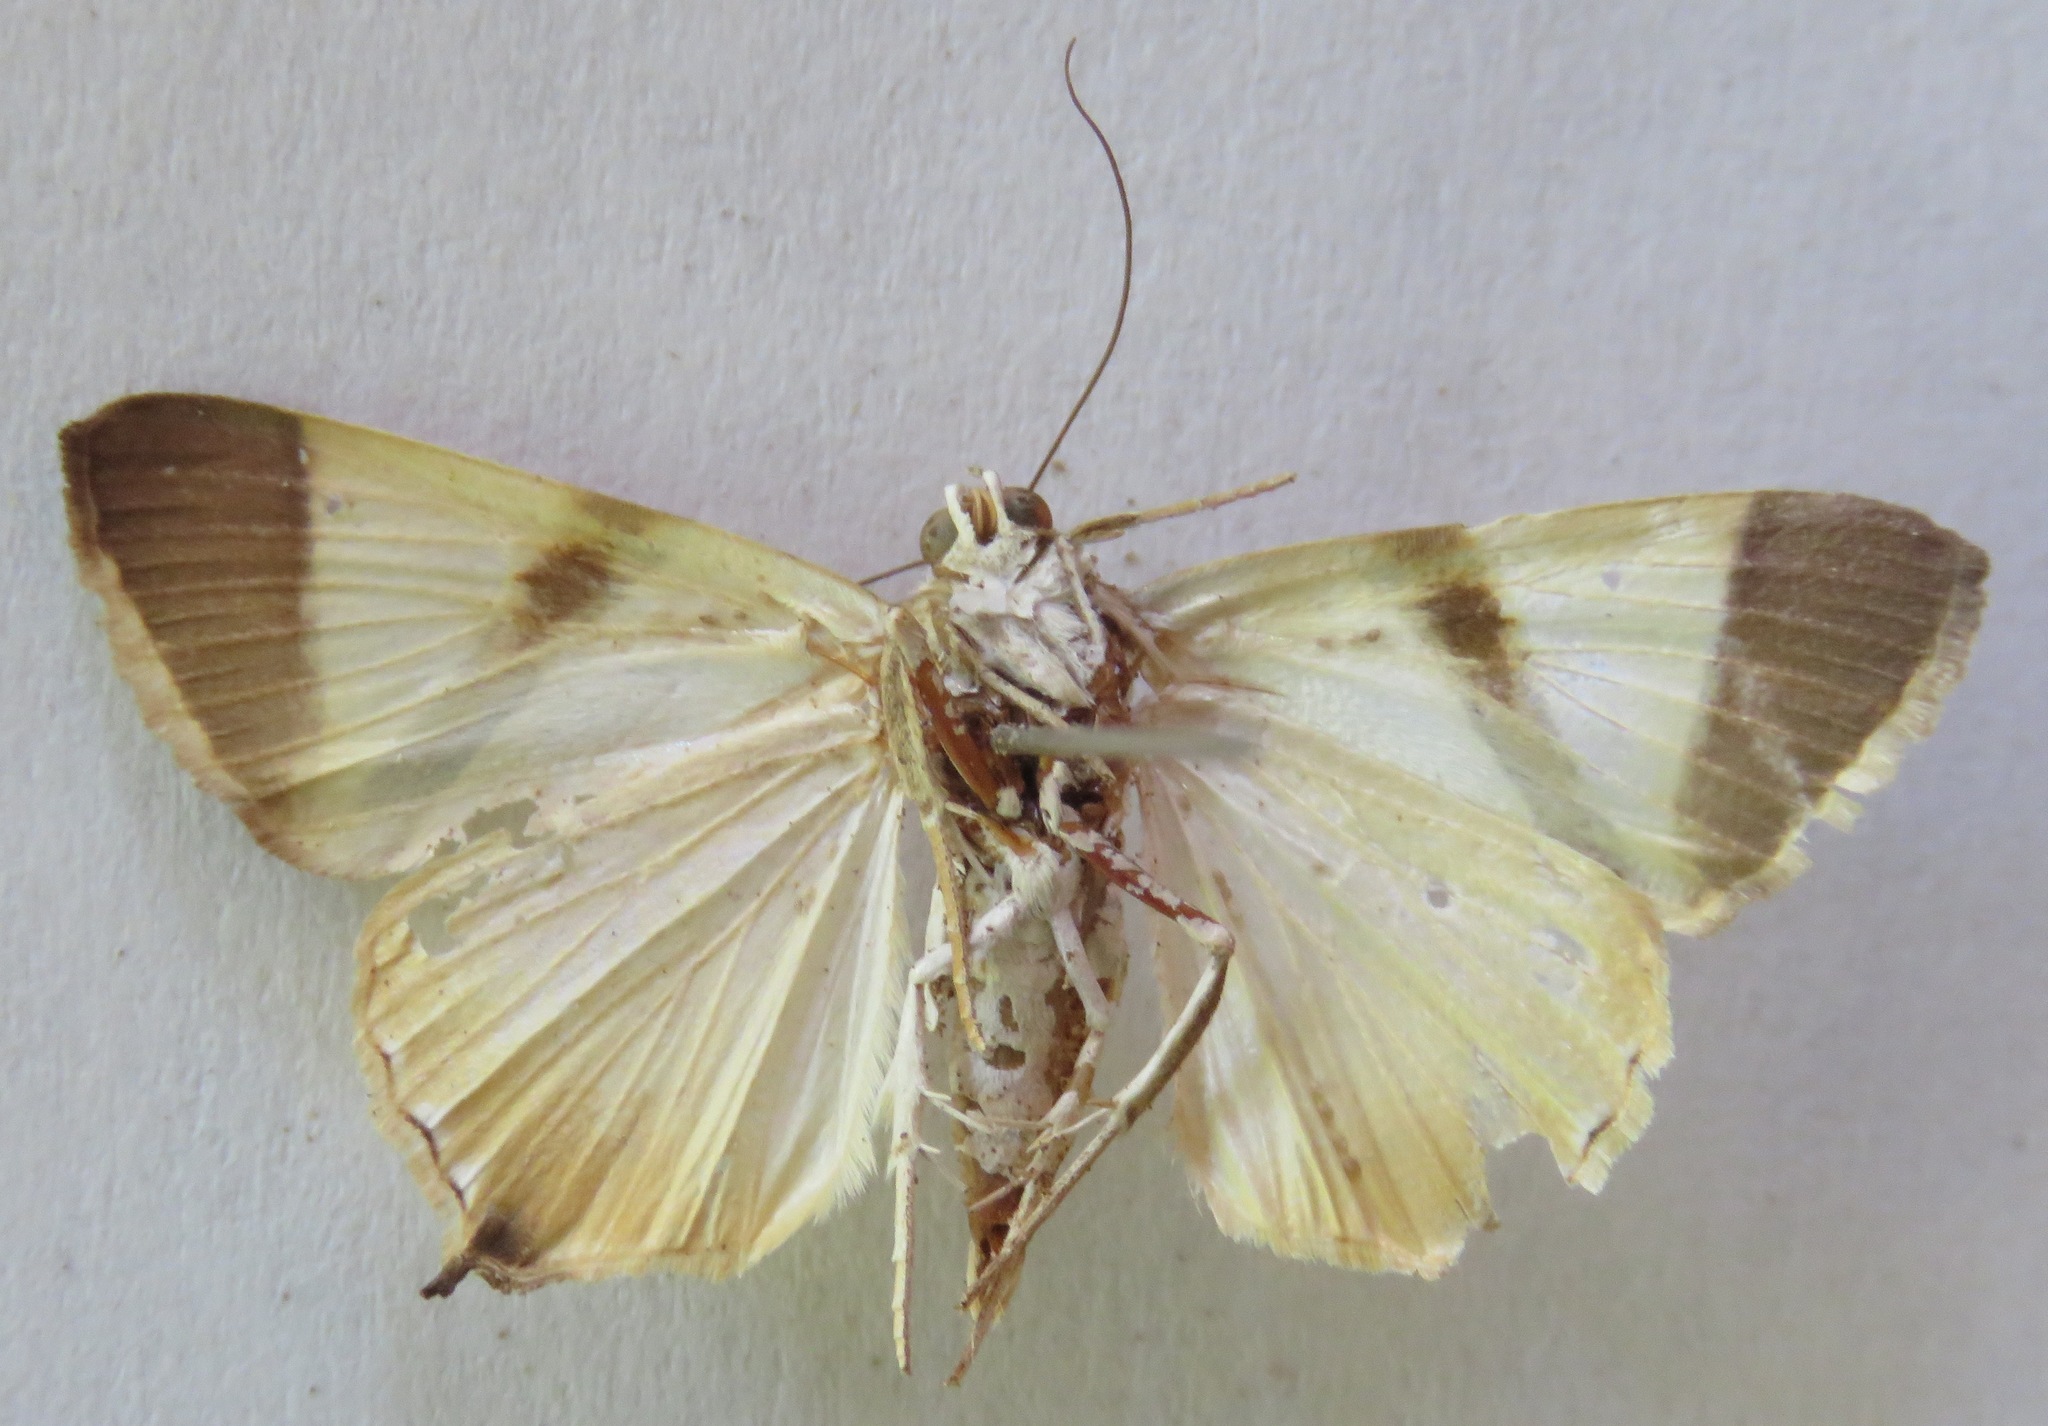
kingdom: Animalia
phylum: Arthropoda
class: Insecta
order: Lepidoptera
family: Erebidae
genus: Eulepidotis
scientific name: Eulepidotis rectimargo
